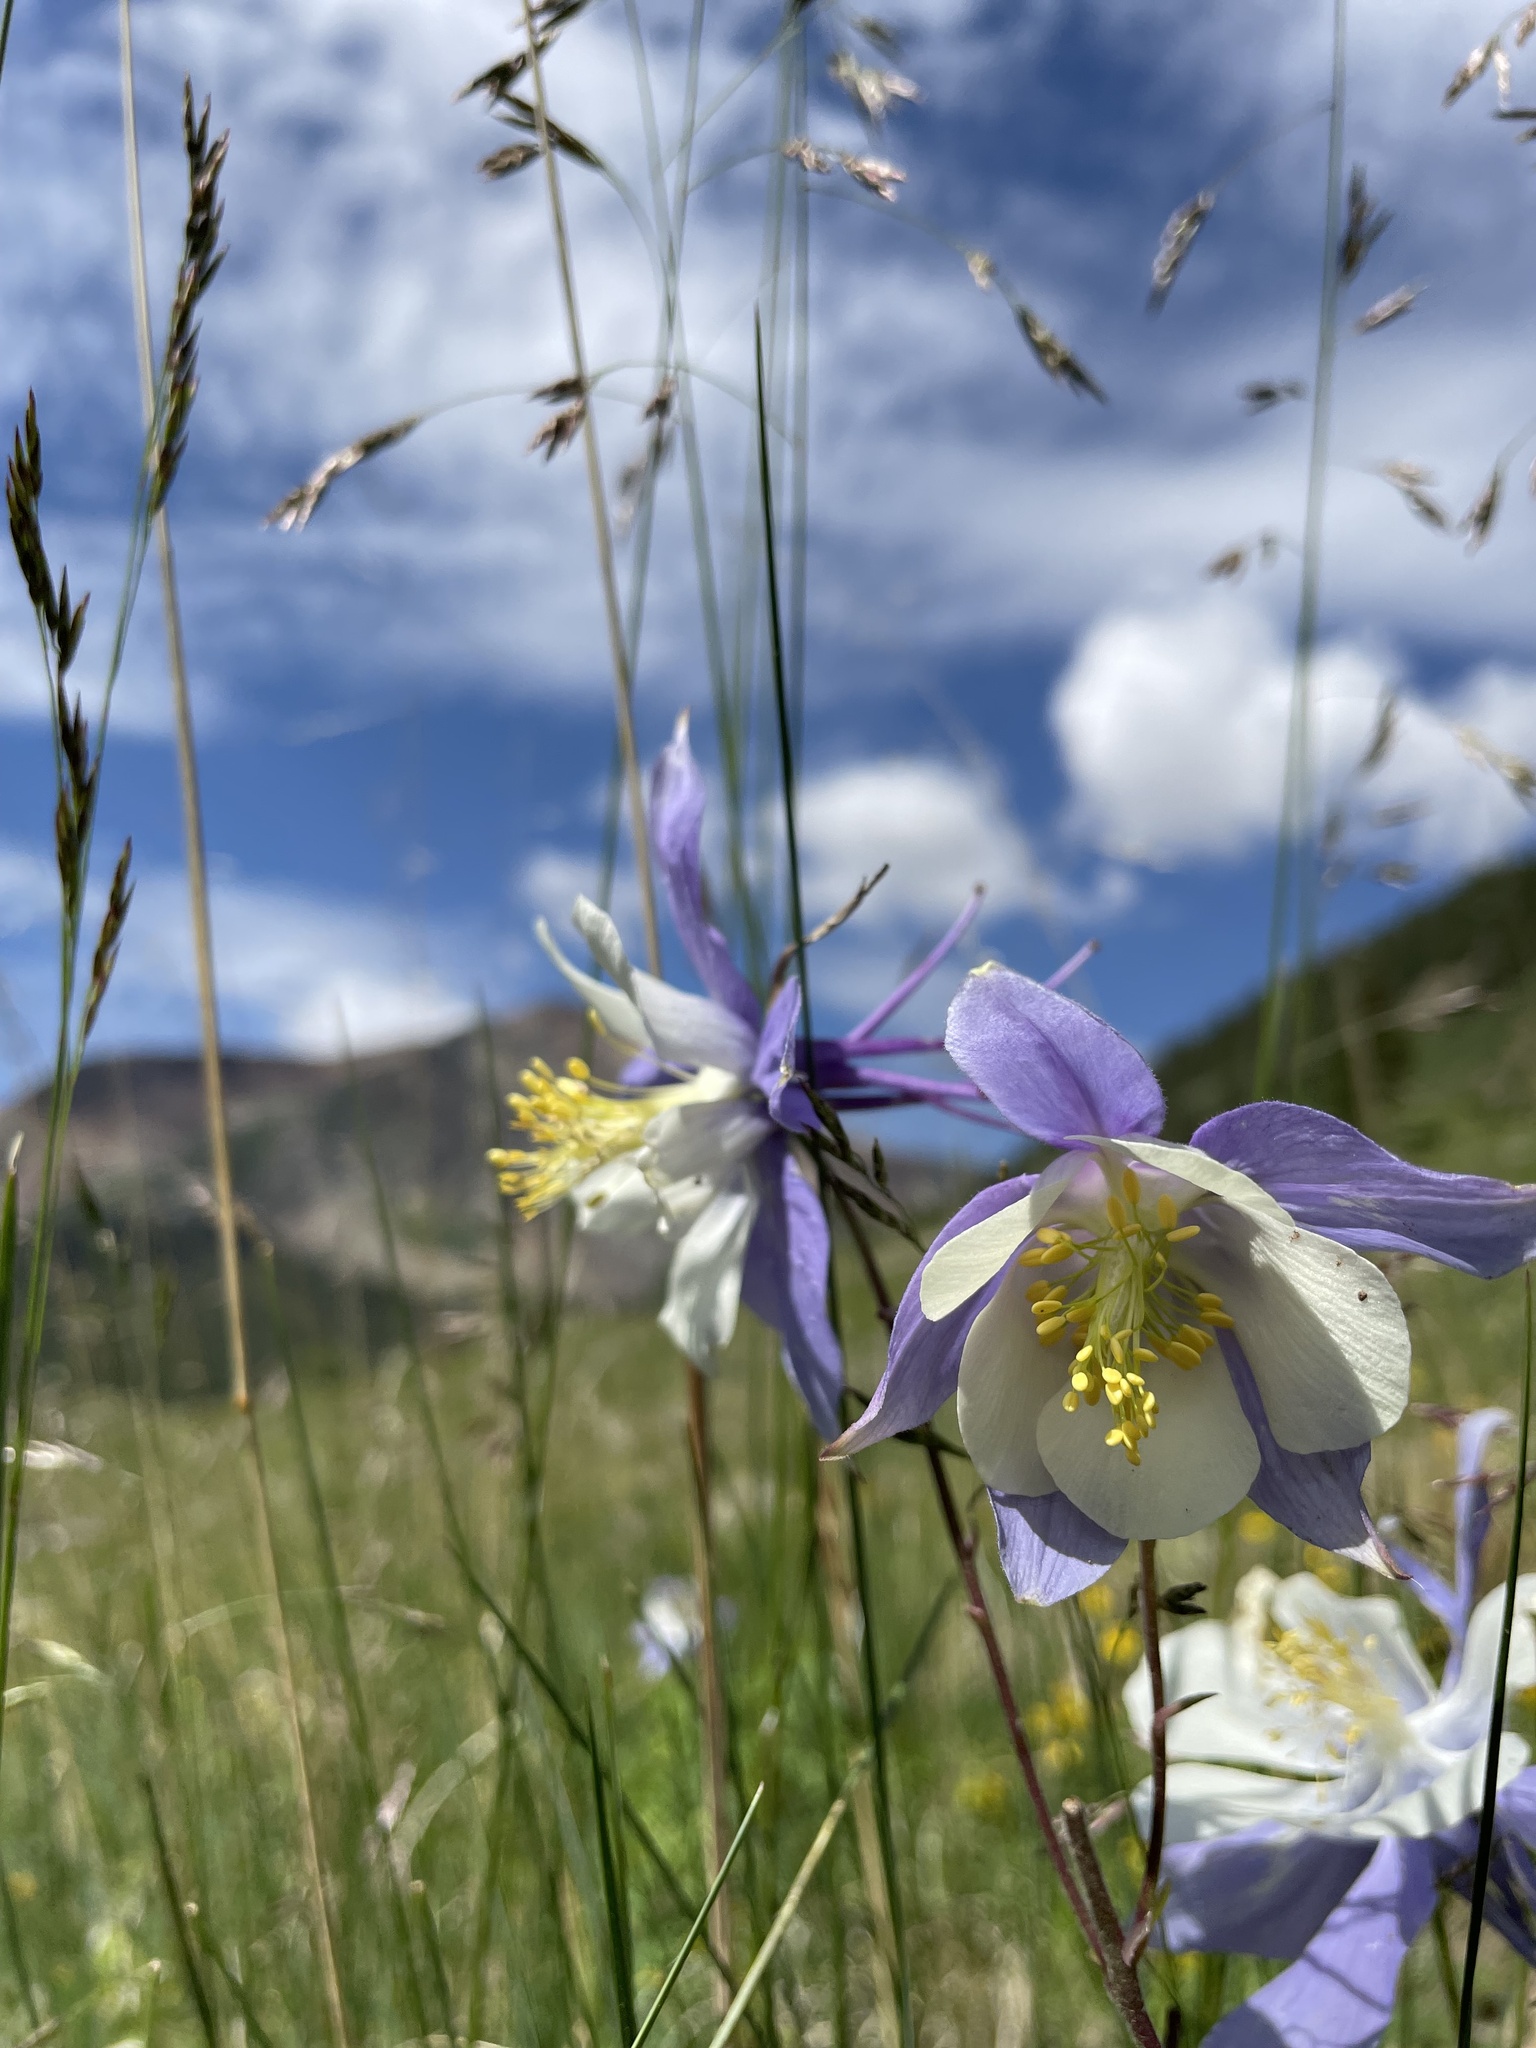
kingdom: Plantae
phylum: Tracheophyta
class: Magnoliopsida
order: Ranunculales
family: Ranunculaceae
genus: Aquilegia
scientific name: Aquilegia coerulea
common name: Rocky mountain columbine
